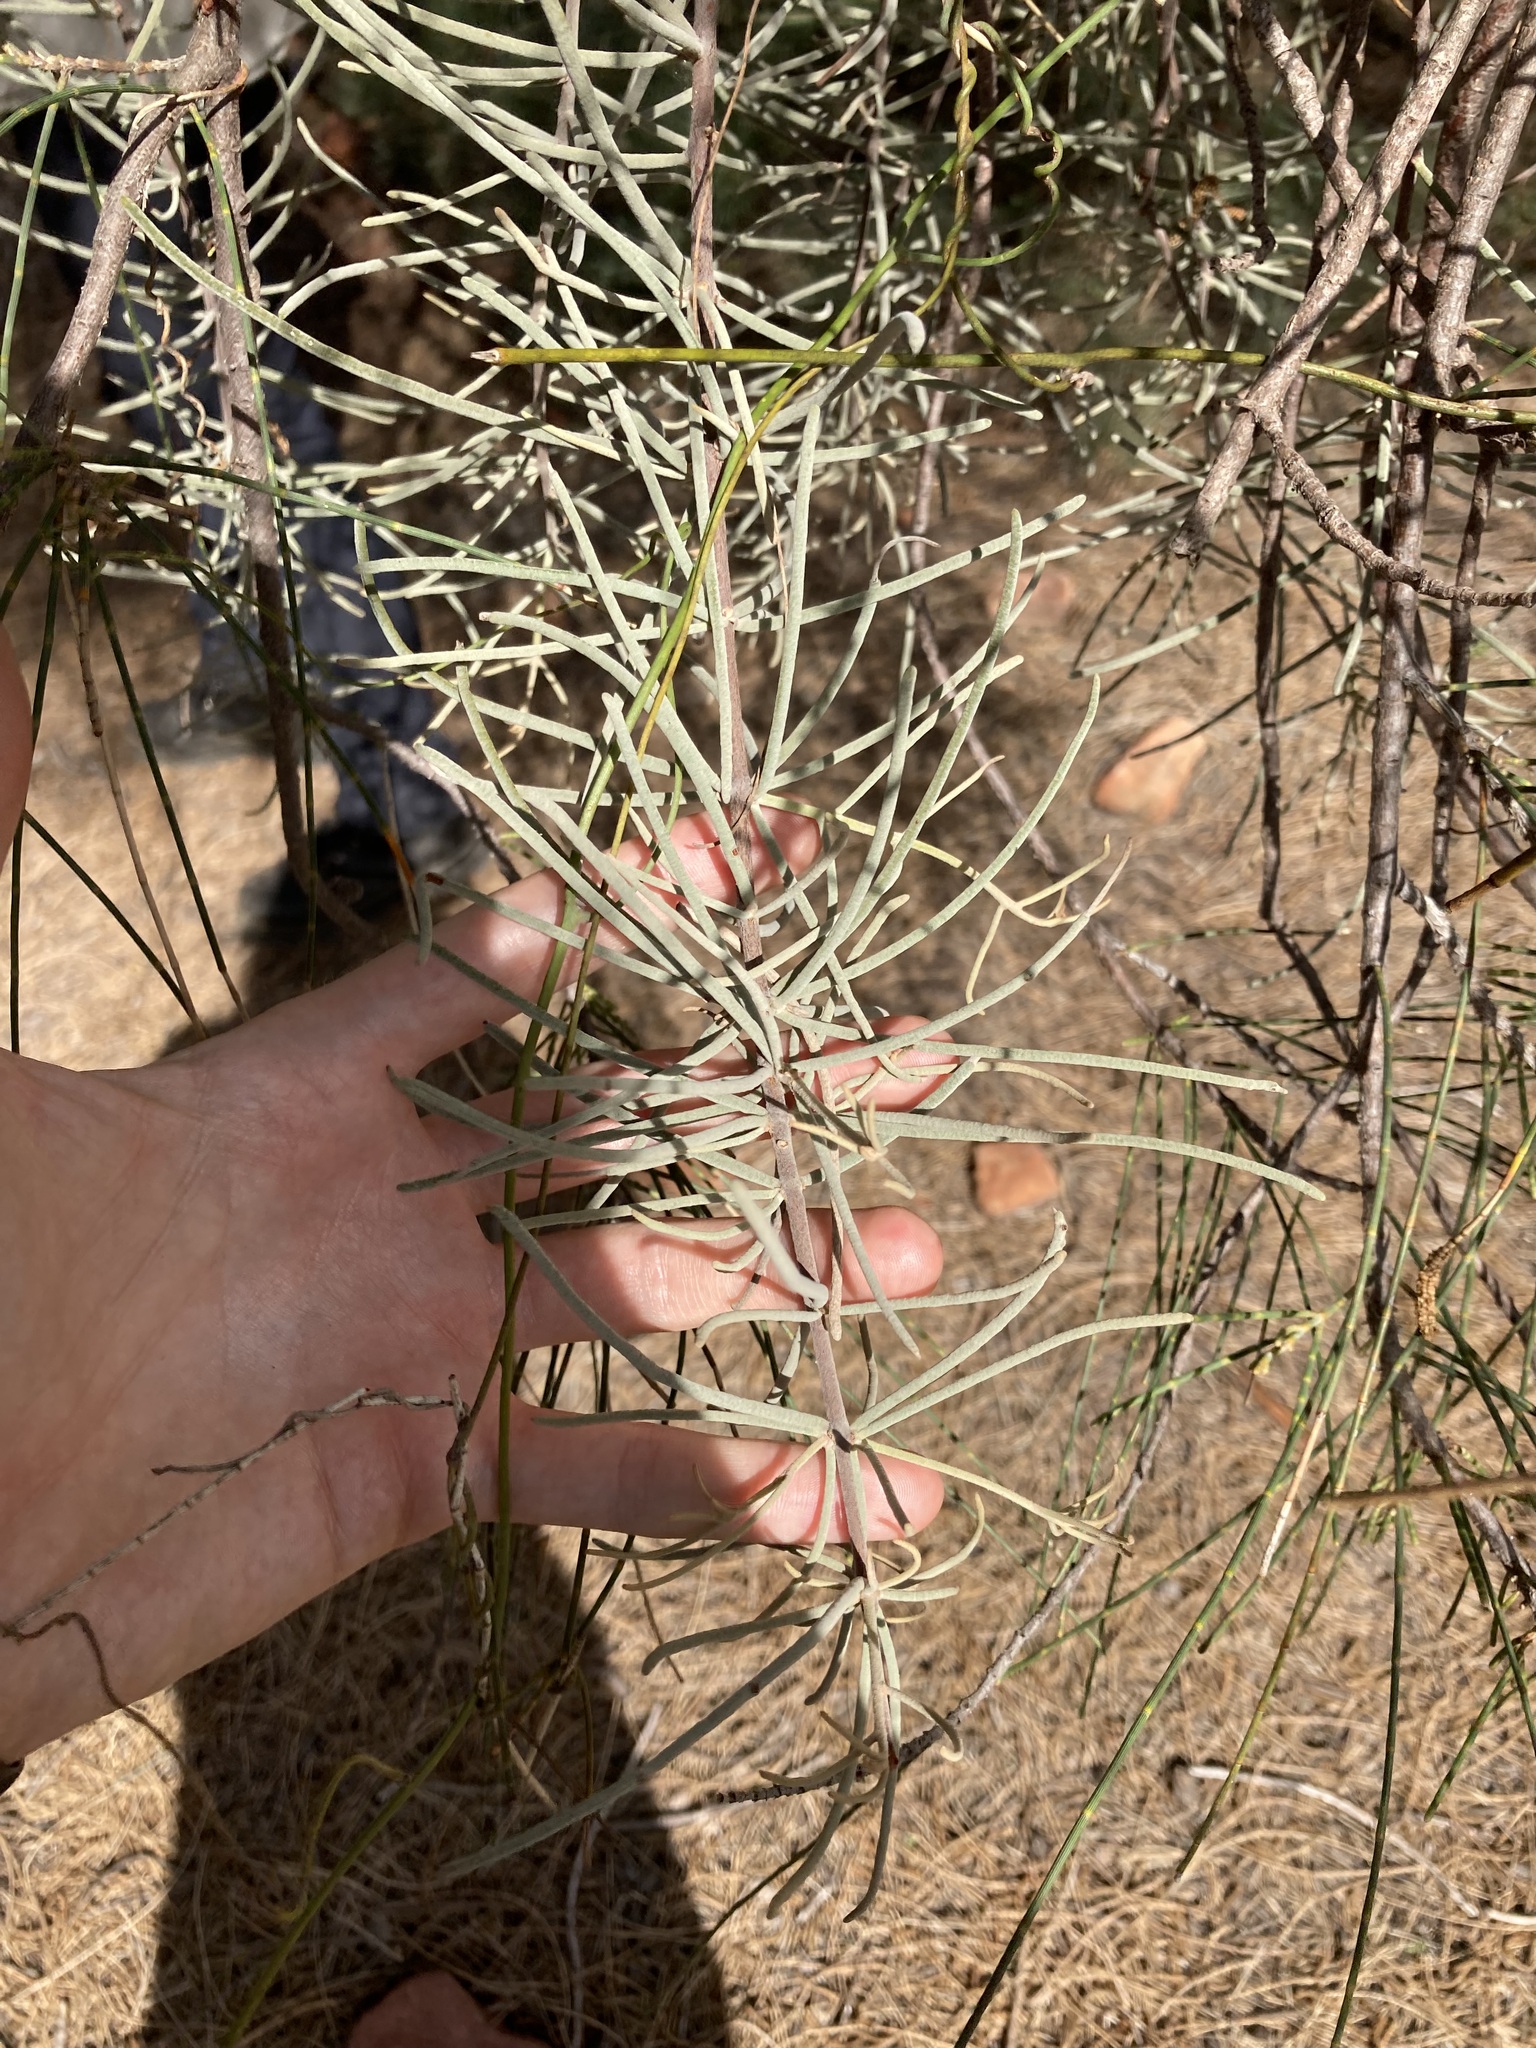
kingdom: Plantae
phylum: Tracheophyta
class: Magnoliopsida
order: Santalales
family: Loranthaceae
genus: Amyema
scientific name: Amyema linophylla
